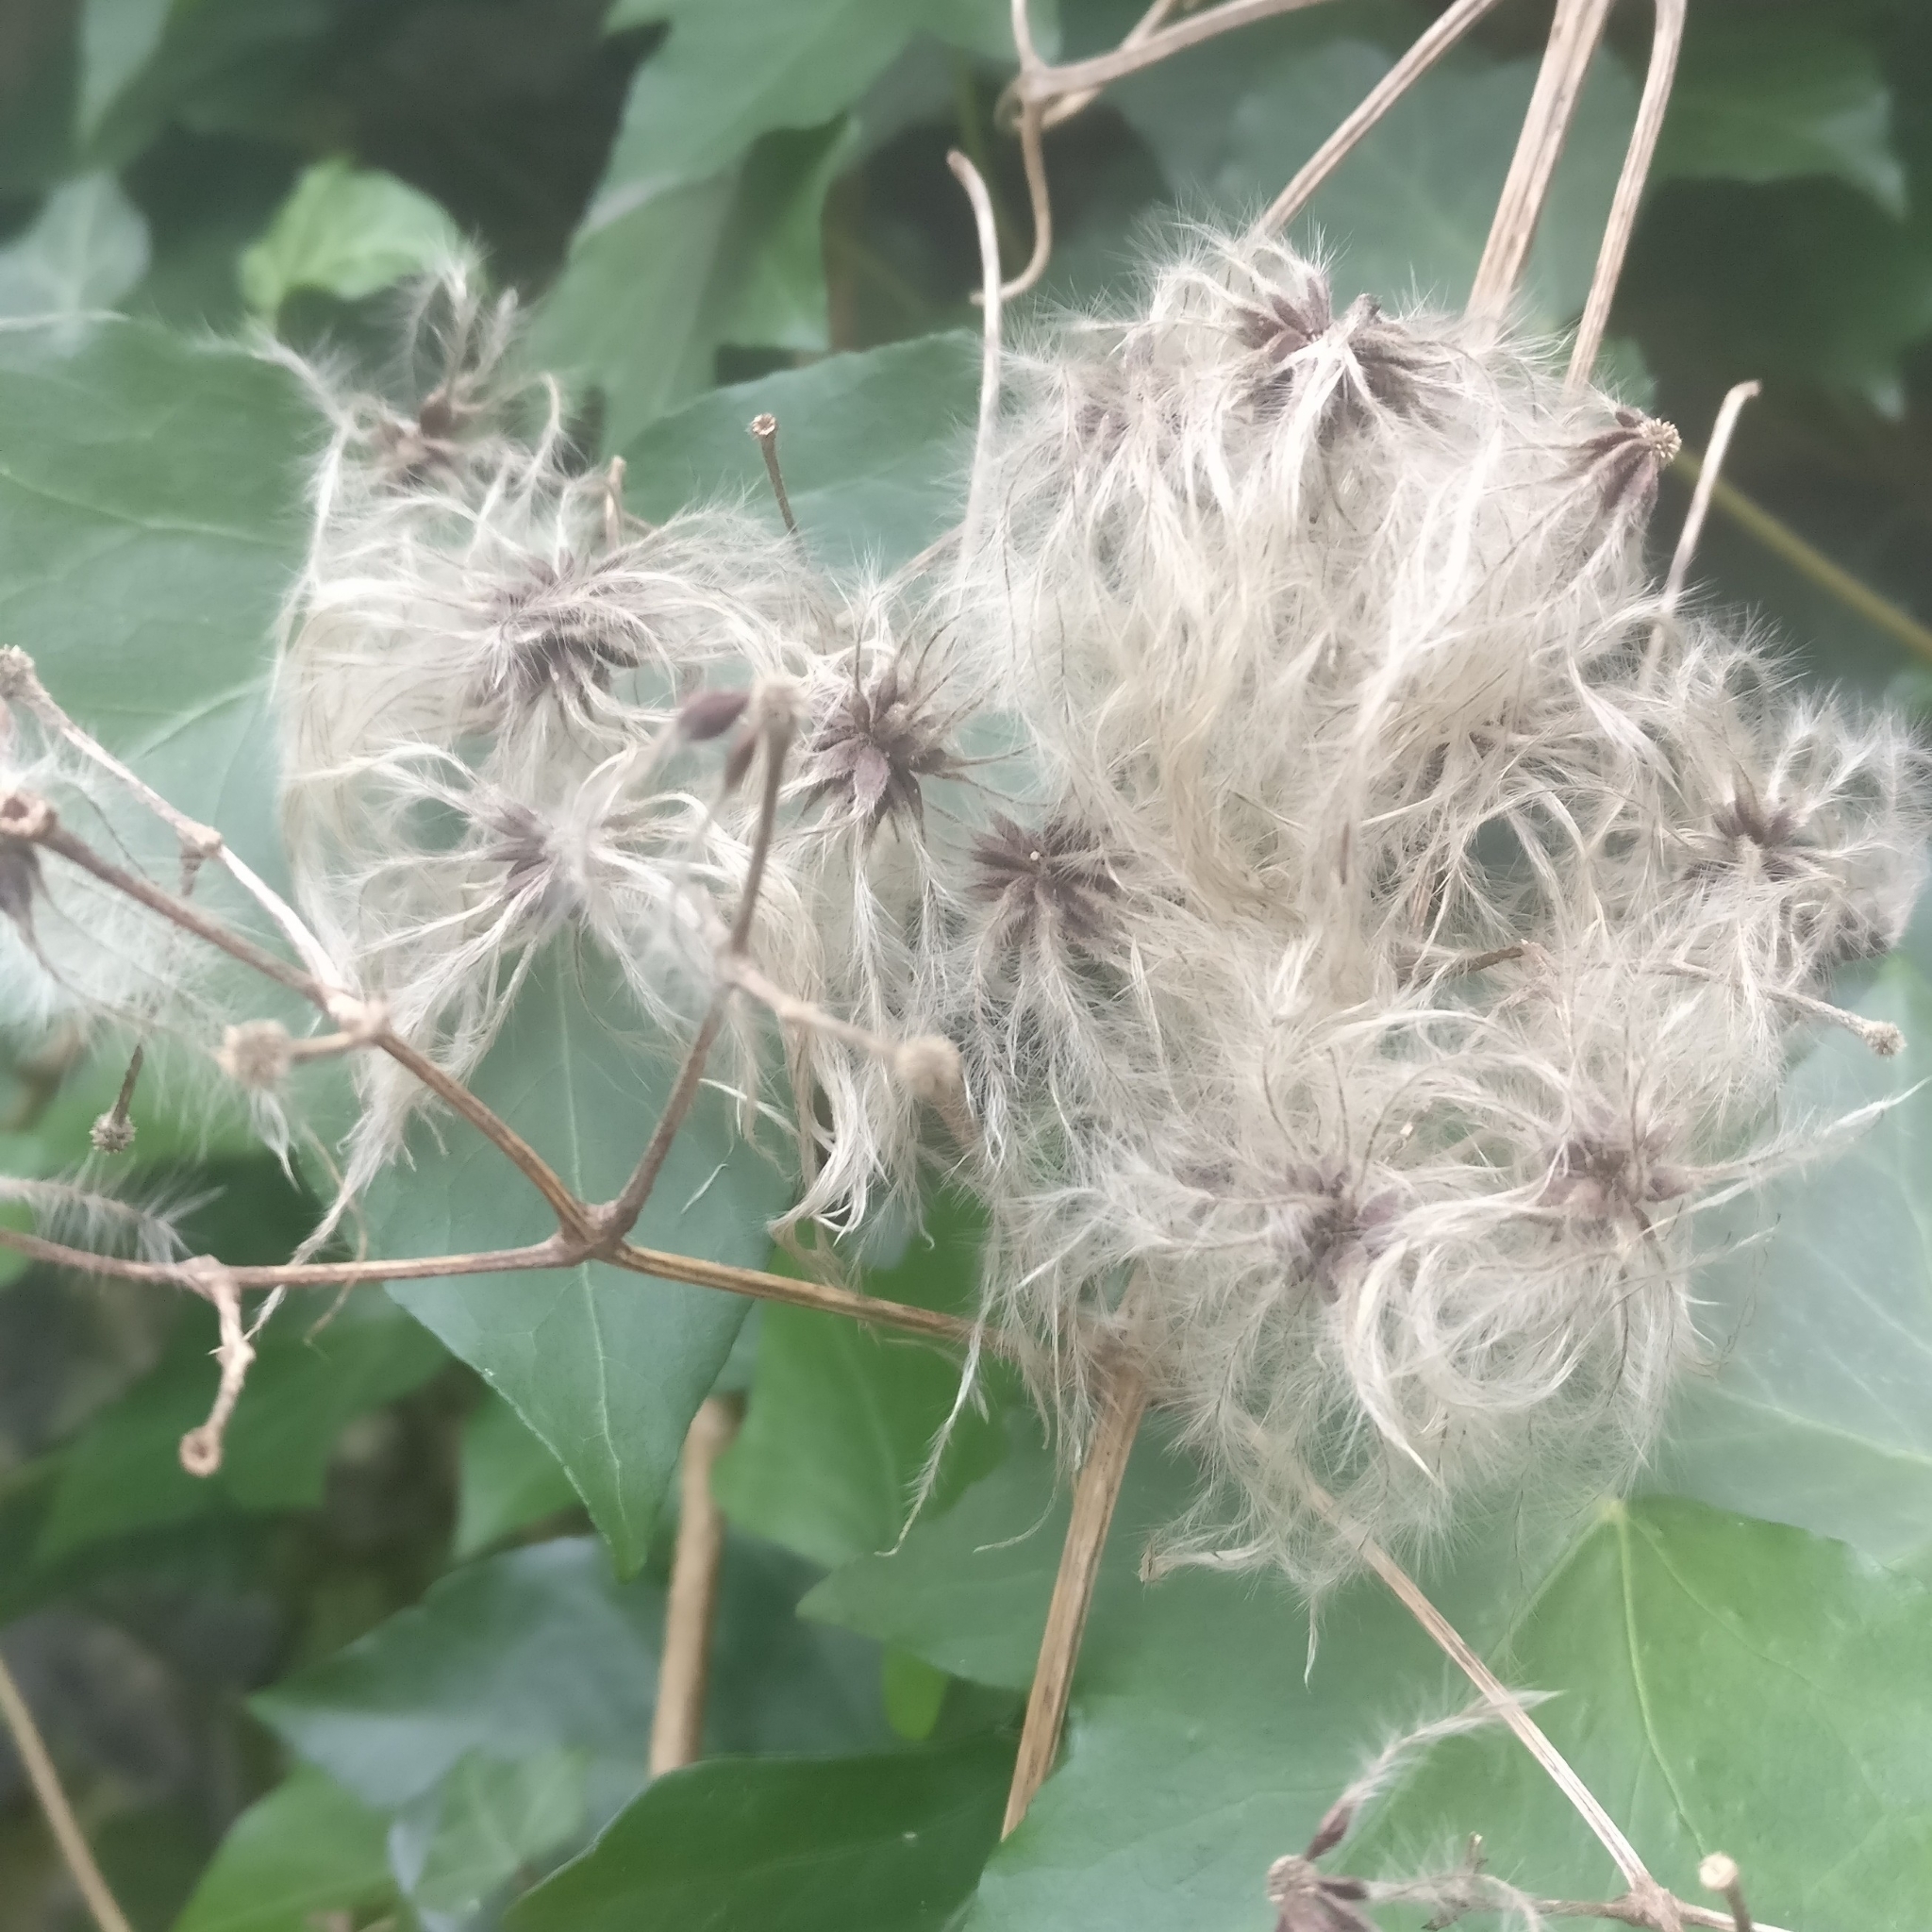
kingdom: Plantae
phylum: Tracheophyta
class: Magnoliopsida
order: Ranunculales
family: Ranunculaceae
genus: Clematis
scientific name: Clematis vitalba
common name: Evergreen clematis
